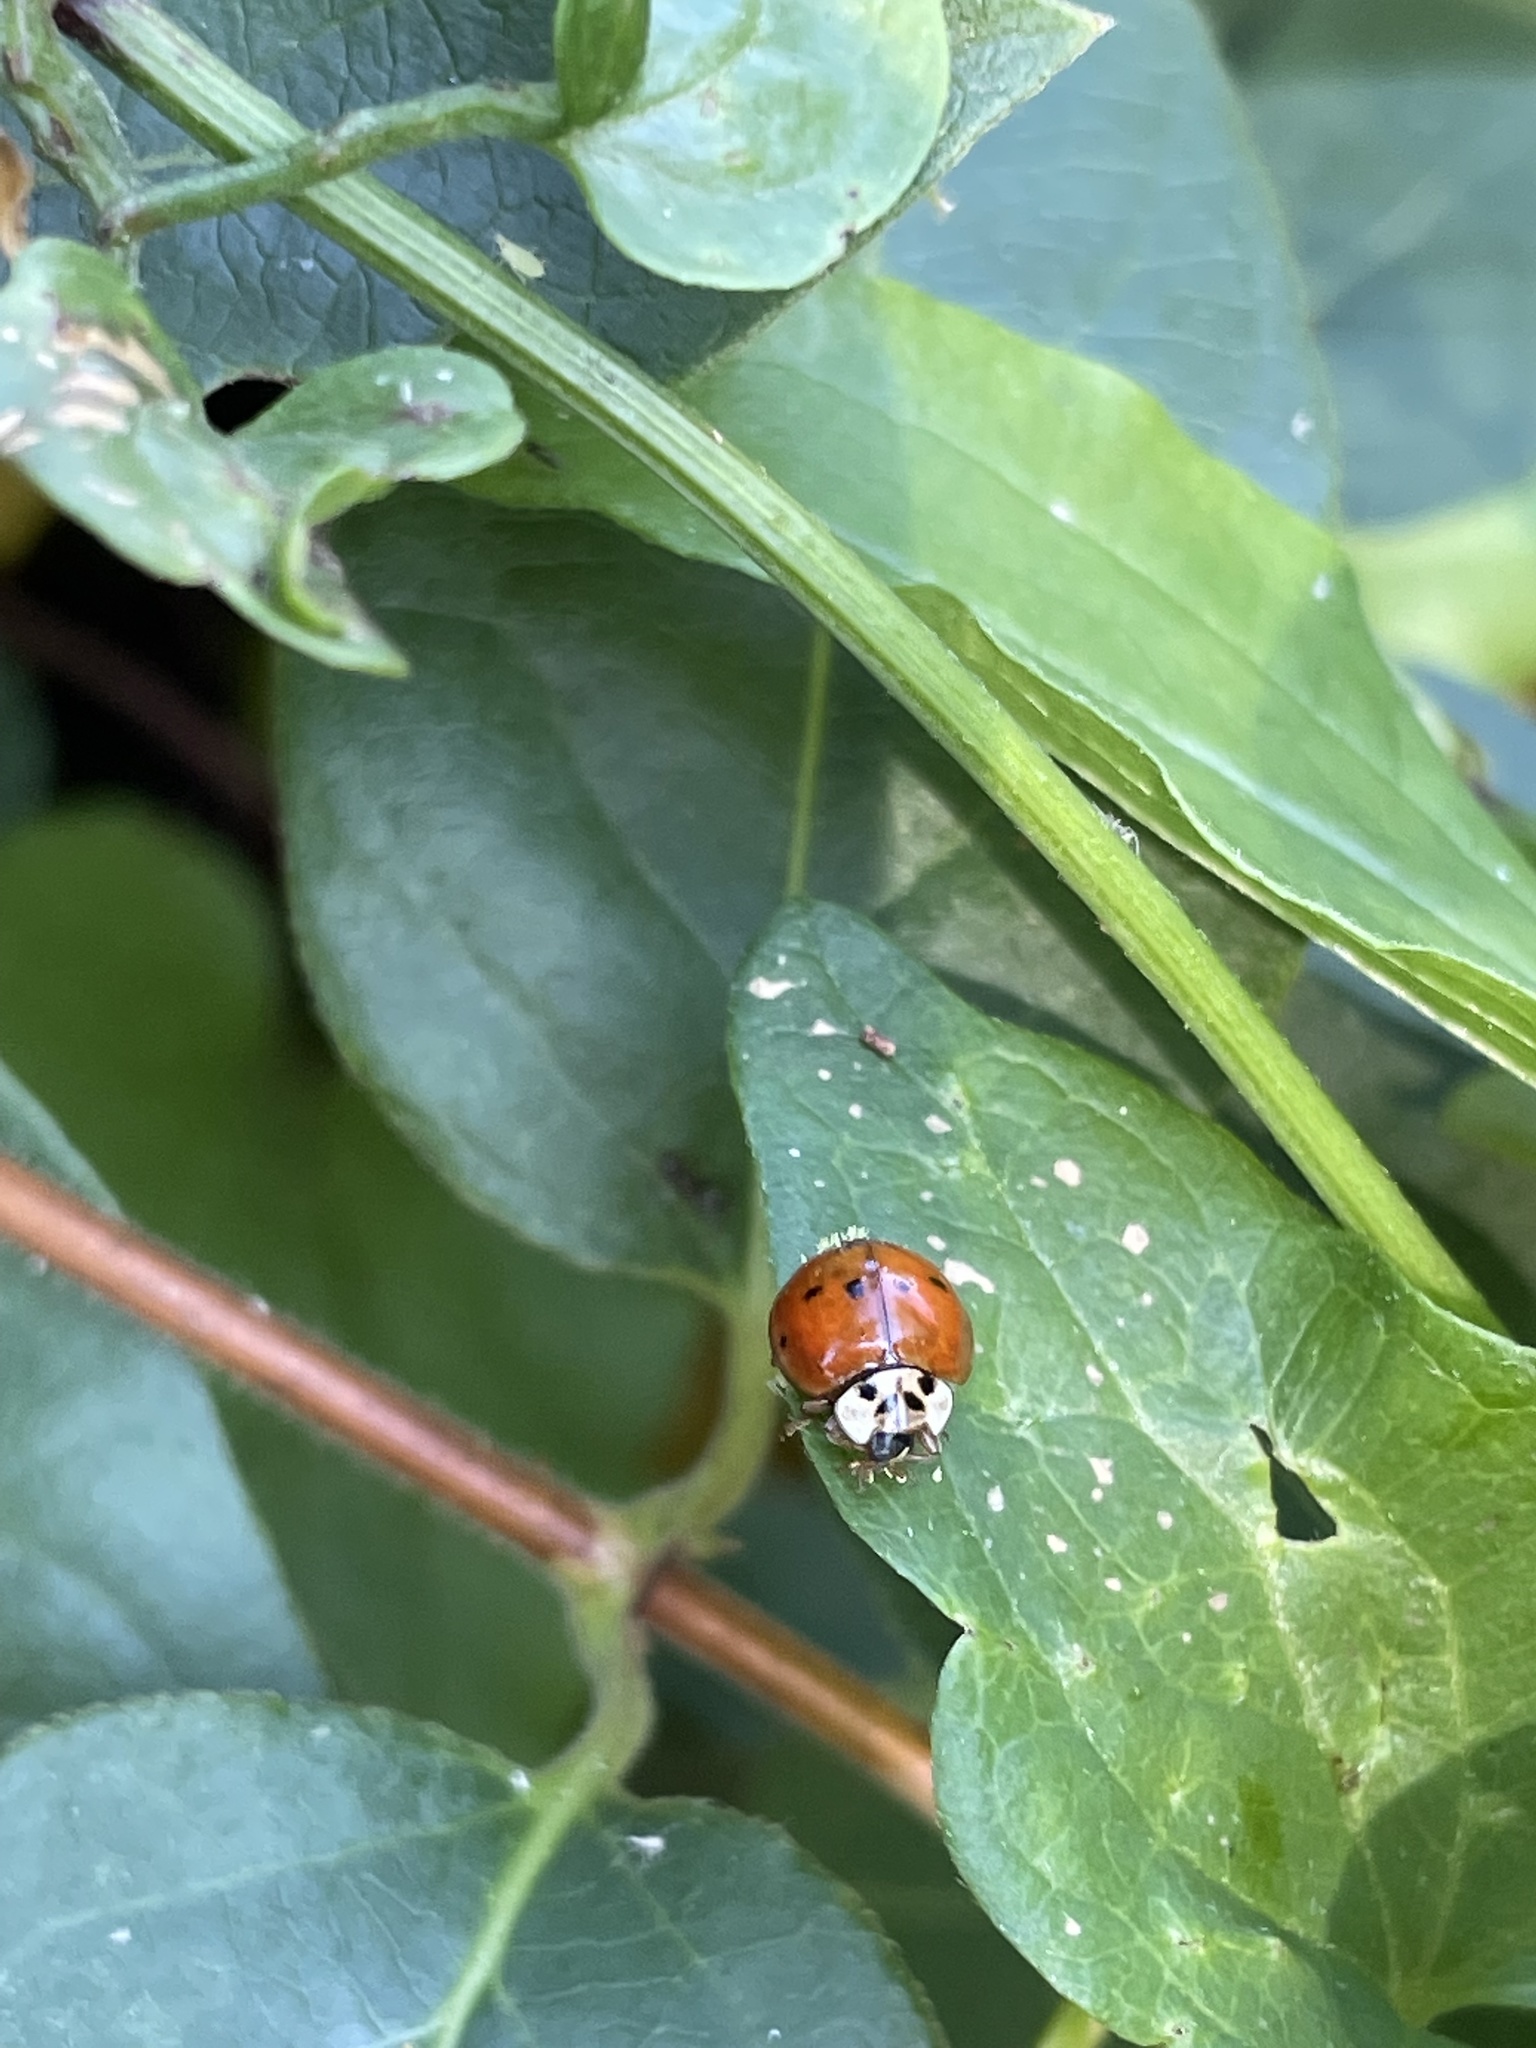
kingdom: Animalia
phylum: Arthropoda
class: Insecta
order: Coleoptera
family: Coccinellidae
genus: Harmonia
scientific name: Harmonia axyridis
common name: Harlequin ladybird
